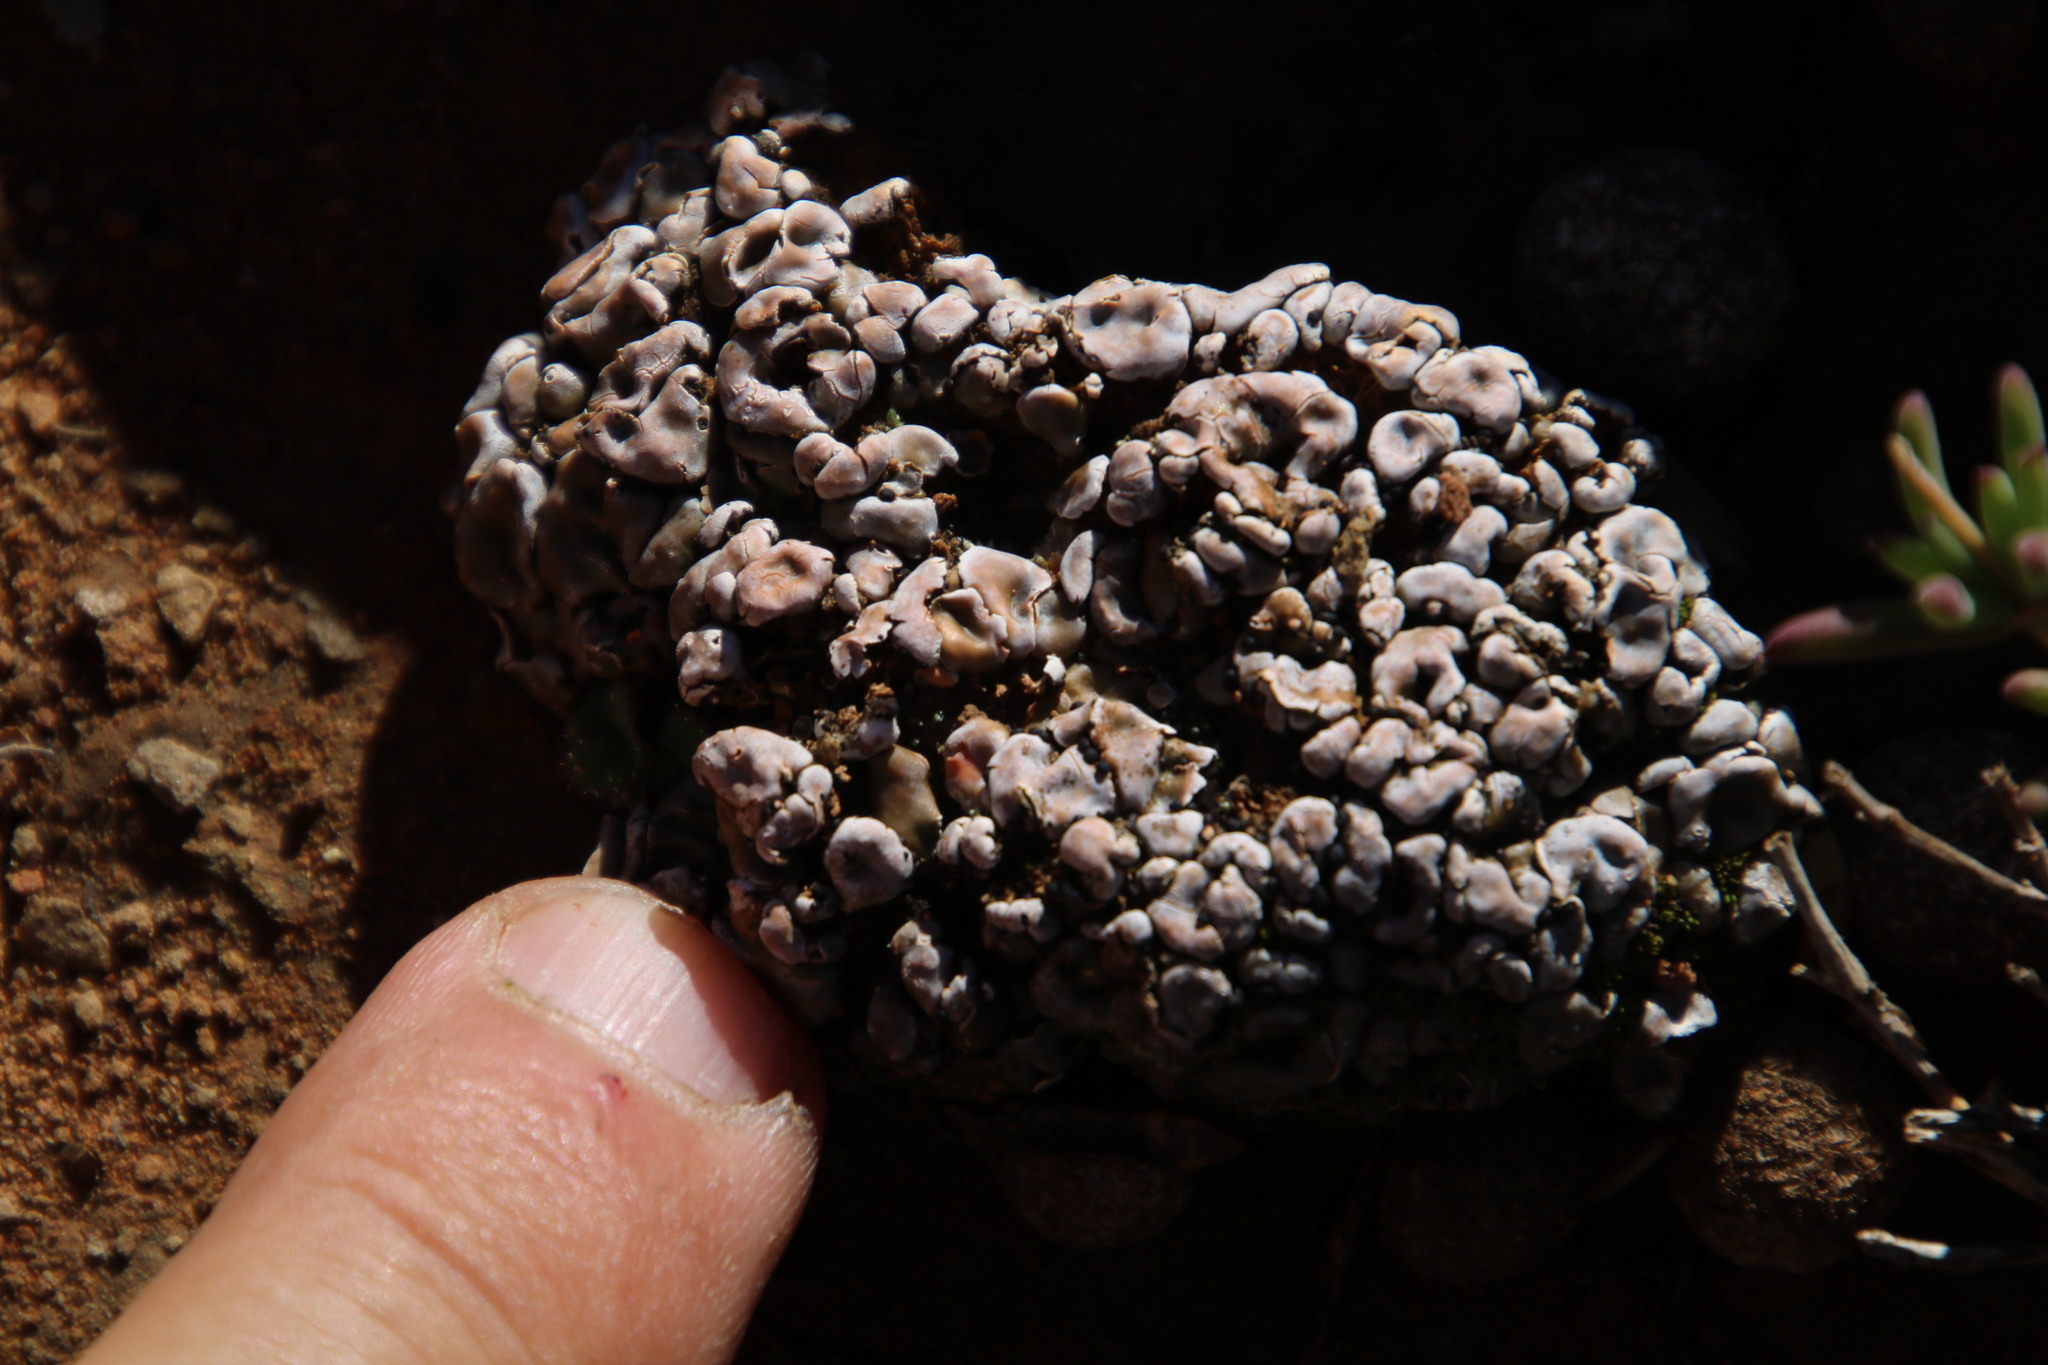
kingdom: Fungi
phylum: Ascomycota
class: Lecanoromycetes
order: Lecanorales
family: Psoraceae
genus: Psora
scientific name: Psora crenata
